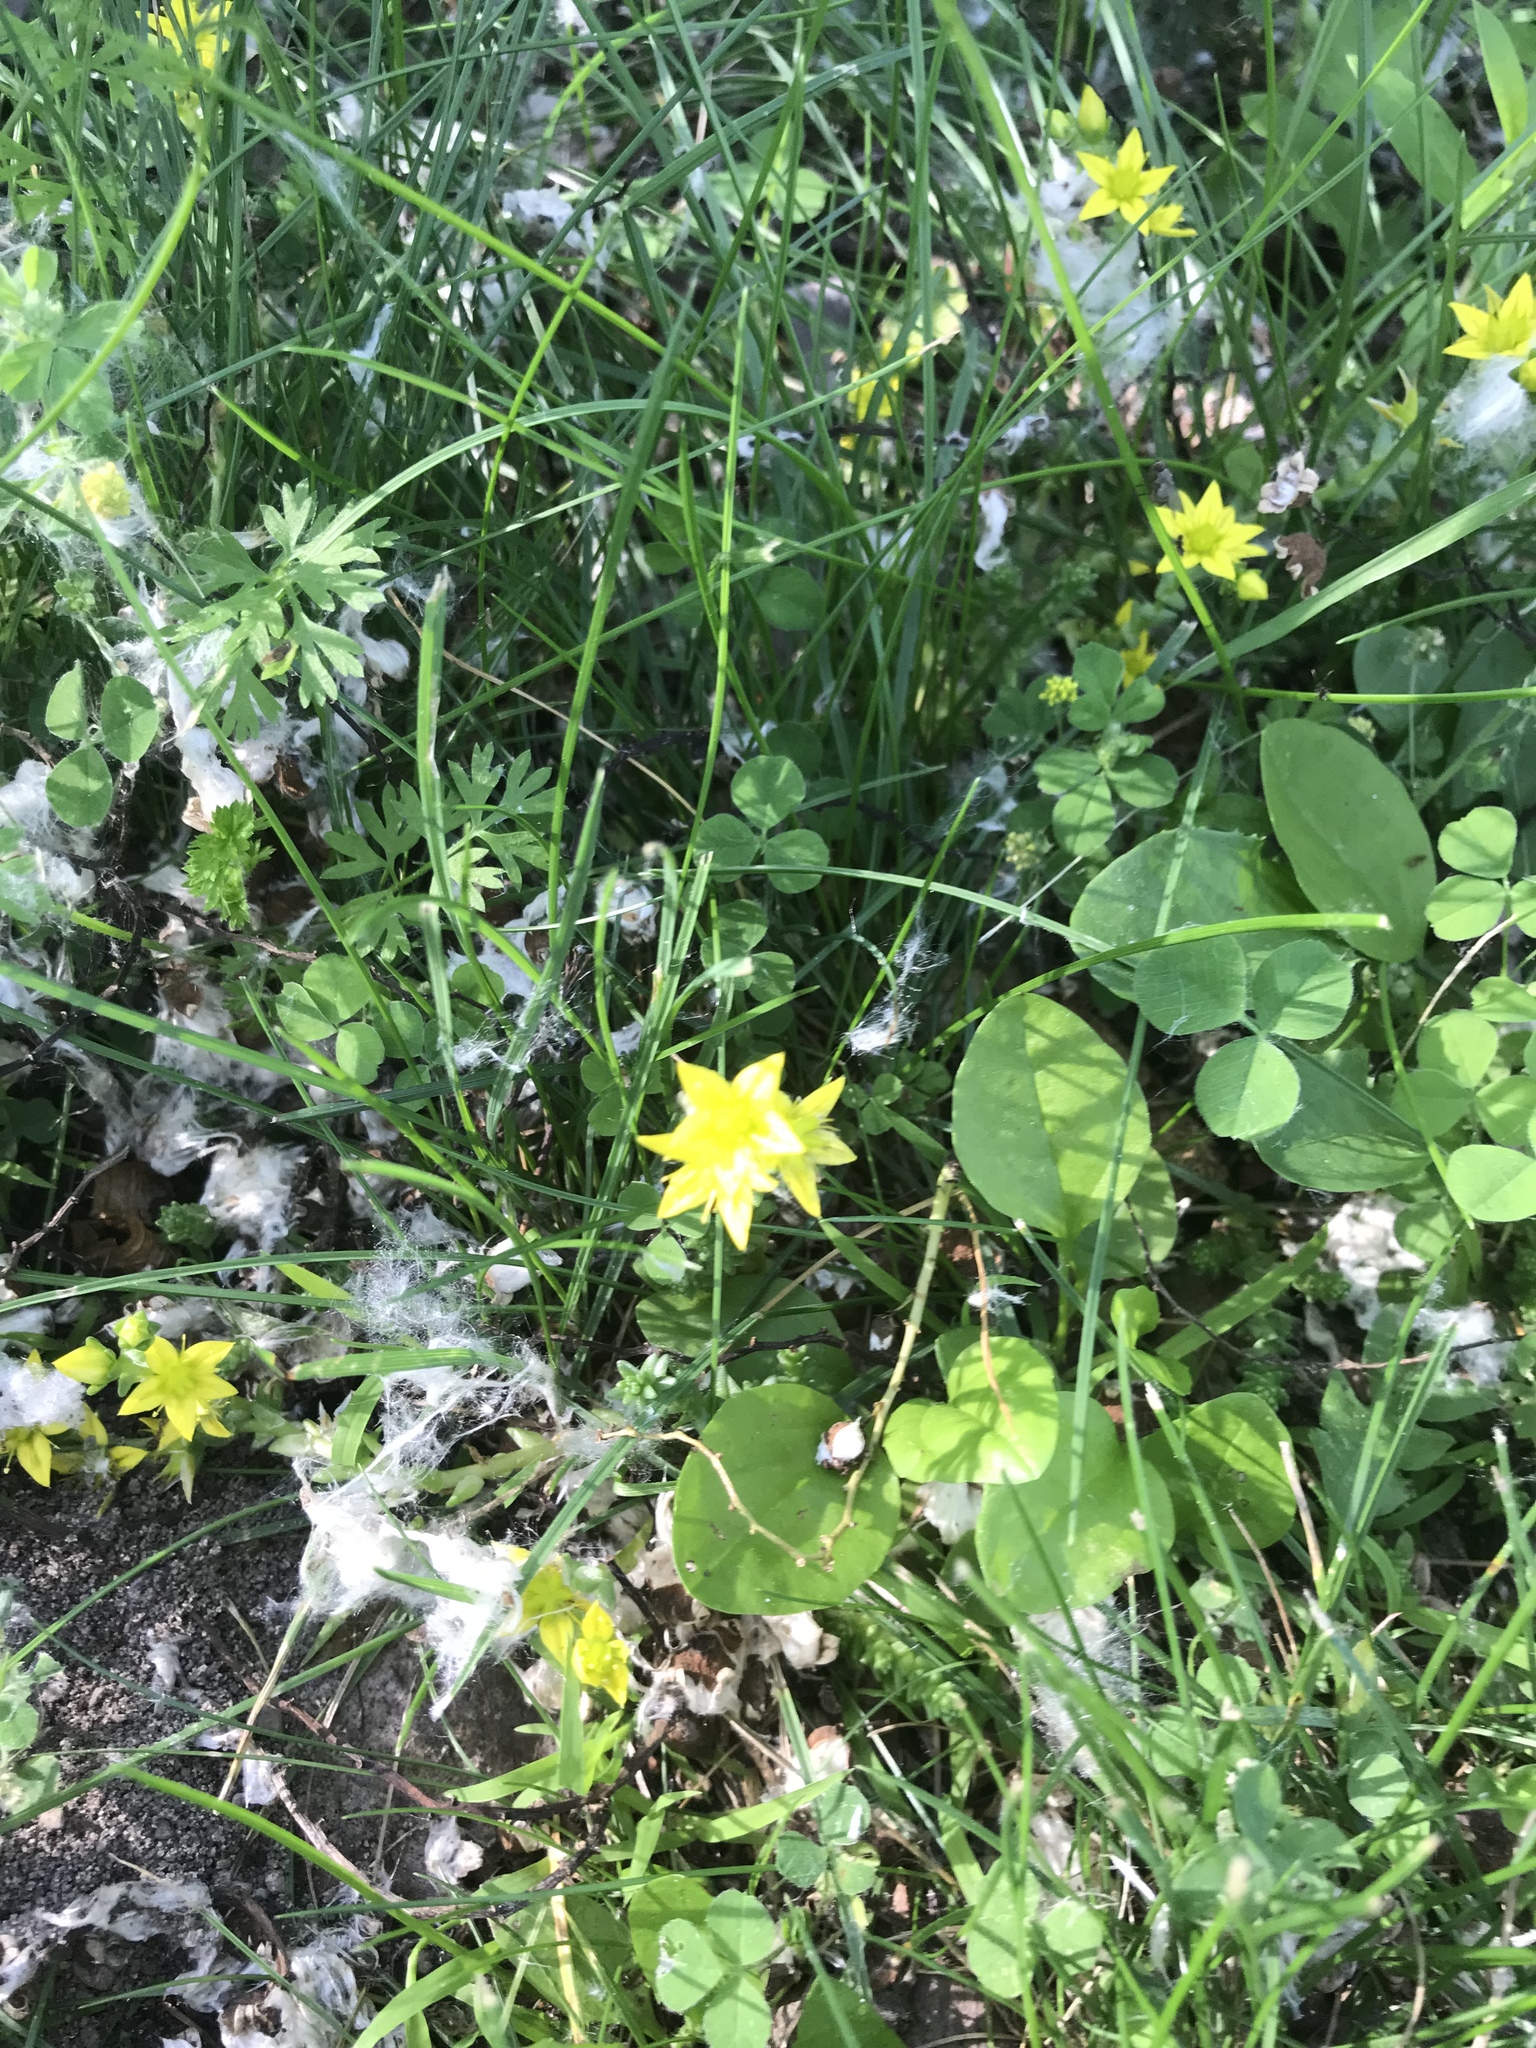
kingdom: Plantae
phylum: Tracheophyta
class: Magnoliopsida
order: Saxifragales
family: Crassulaceae
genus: Sedum
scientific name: Sedum acre
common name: Biting stonecrop
